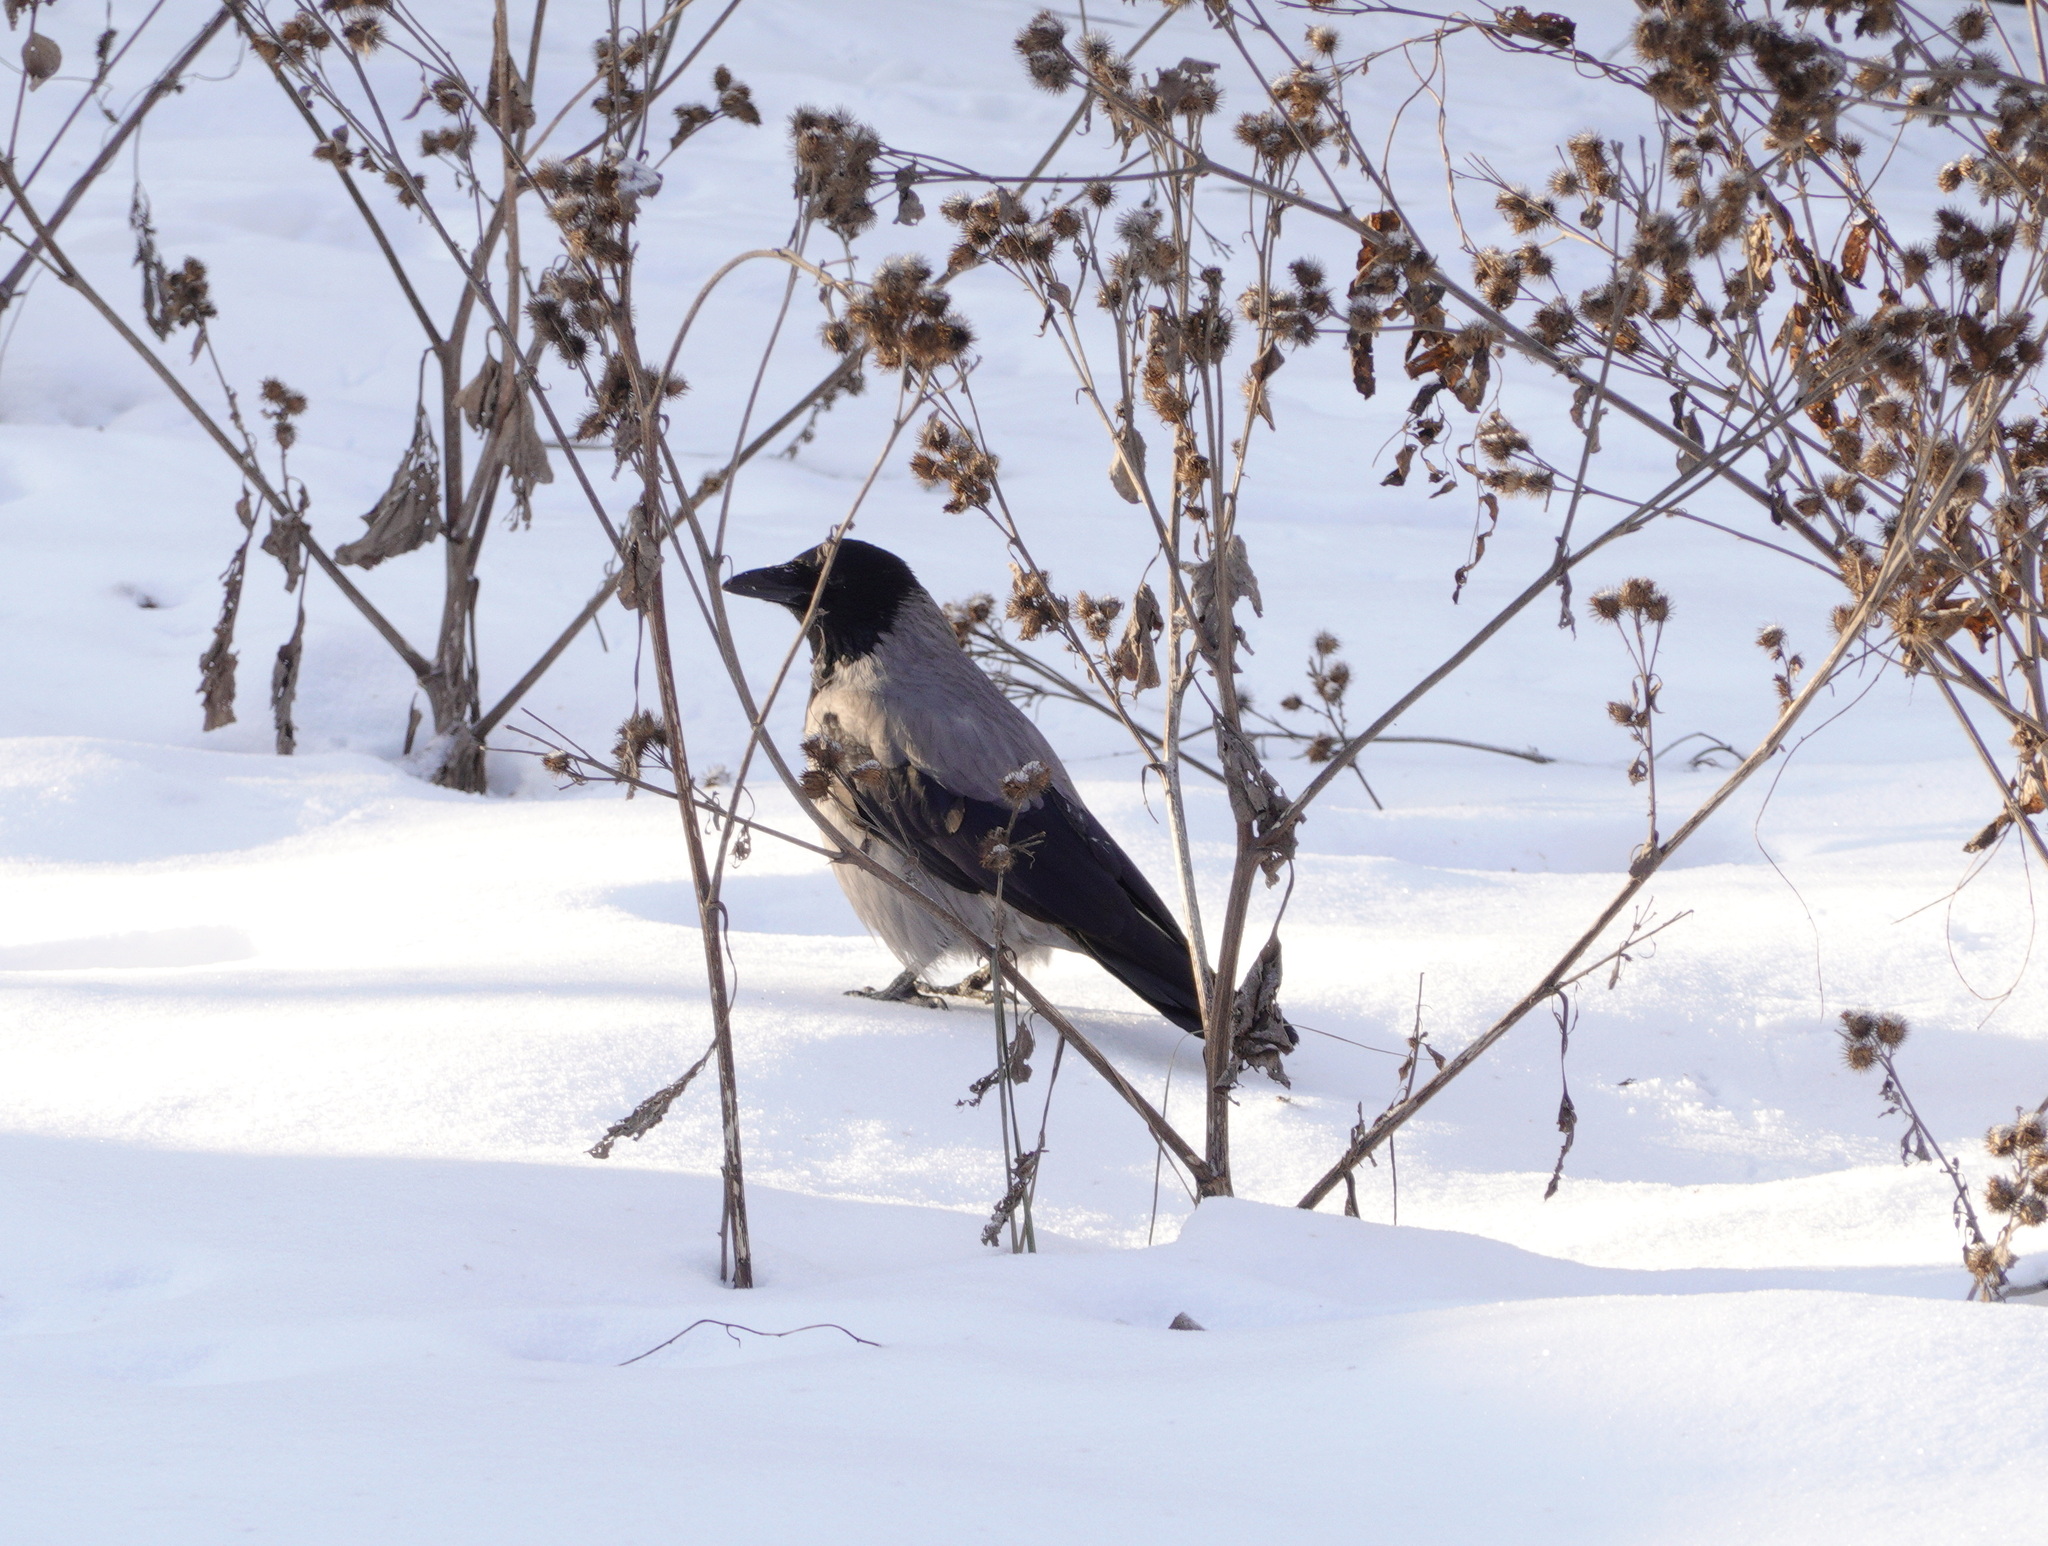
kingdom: Animalia
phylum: Chordata
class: Aves
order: Passeriformes
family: Corvidae
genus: Corvus
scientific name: Corvus cornix
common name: Hooded crow
